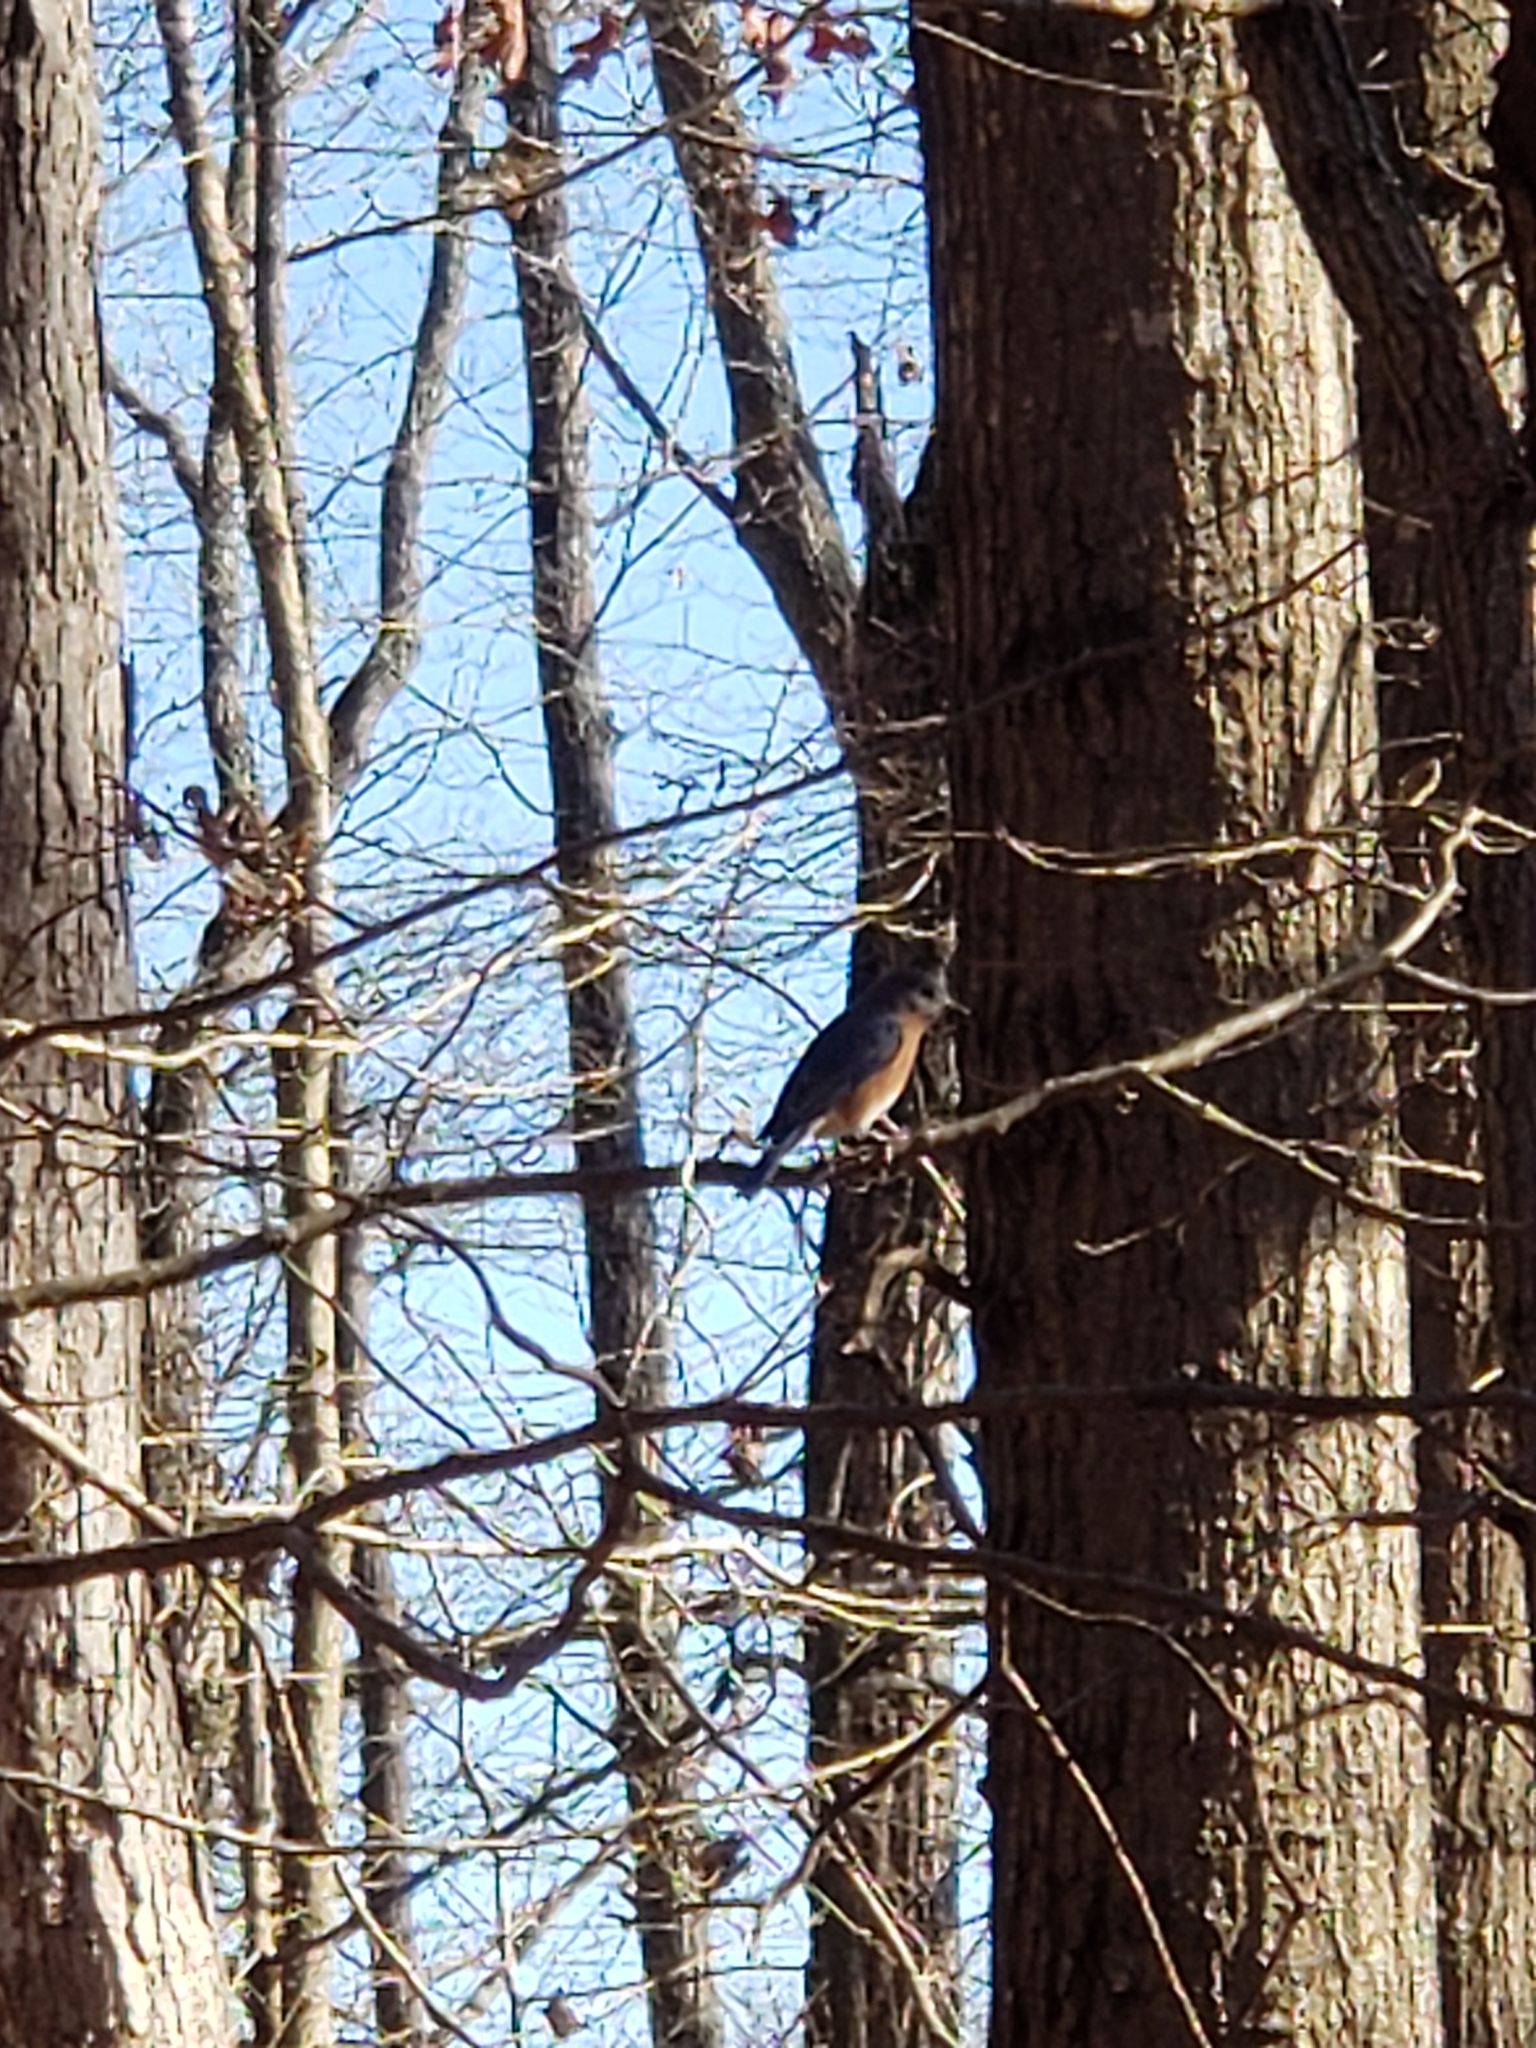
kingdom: Animalia
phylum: Chordata
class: Aves
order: Passeriformes
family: Turdidae
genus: Sialia
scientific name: Sialia sialis
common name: Eastern bluebird
